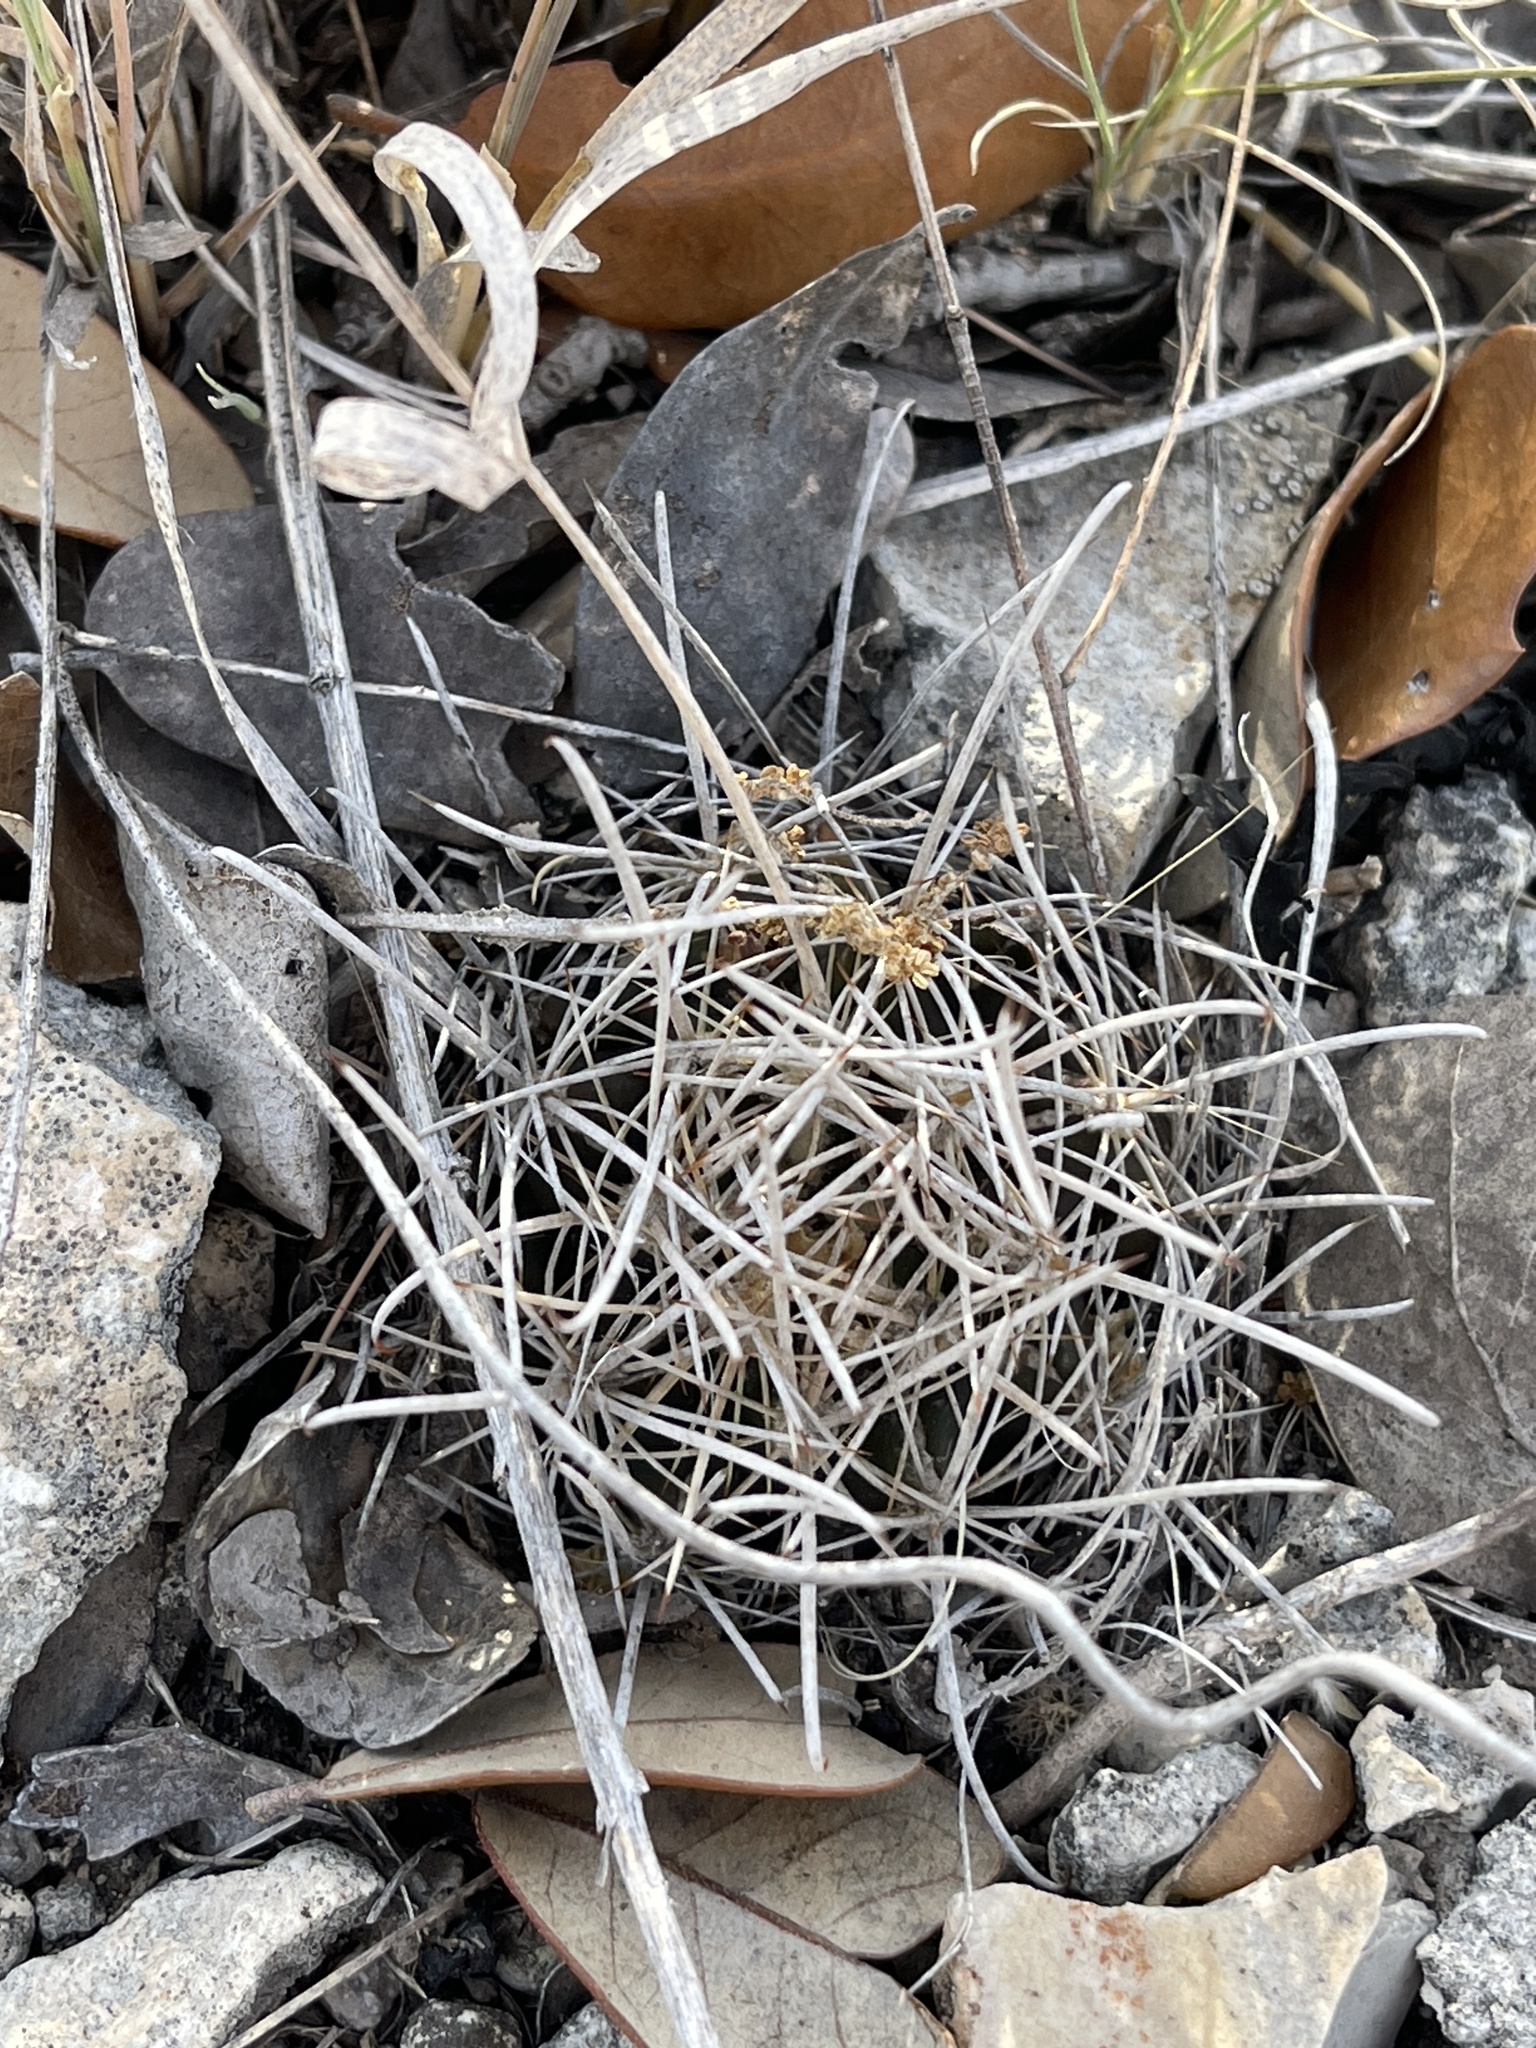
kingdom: Plantae
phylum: Tracheophyta
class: Magnoliopsida
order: Caryophyllales
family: Cactaceae
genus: Sclerocactus
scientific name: Sclerocactus brevihamatus
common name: Engelmann's fishhook cactus
